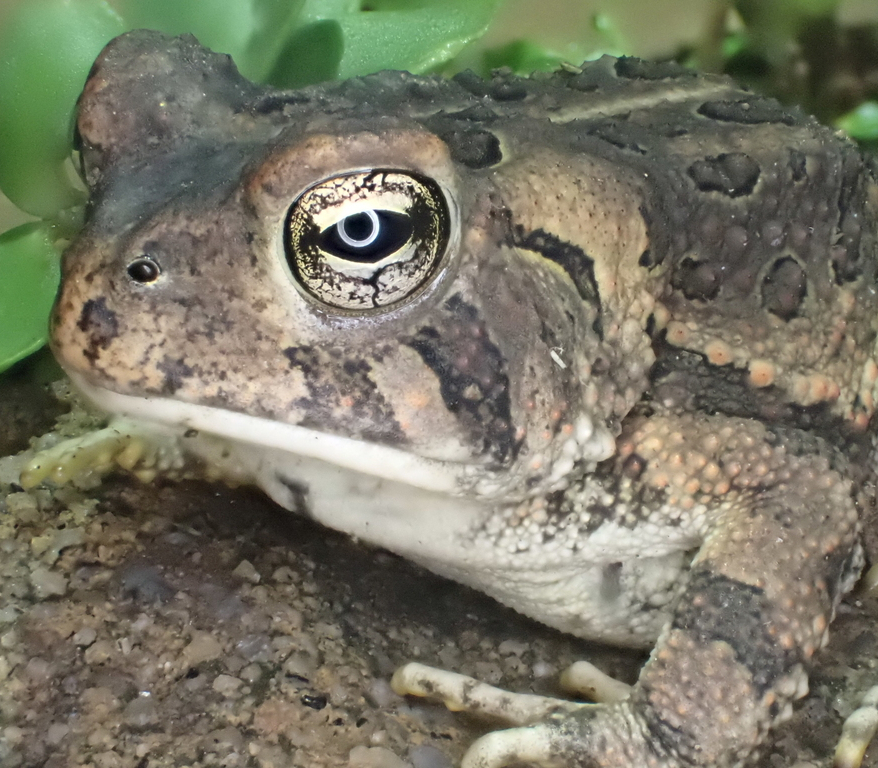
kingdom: Animalia
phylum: Chordata
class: Amphibia
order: Anura
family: Bufonidae
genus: Anaxyrus
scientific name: Anaxyrus fowleri
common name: Fowler's toad
